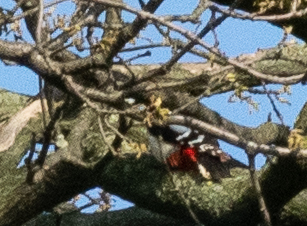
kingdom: Animalia
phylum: Chordata
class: Aves
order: Piciformes
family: Picidae
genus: Dendrocopos
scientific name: Dendrocopos major
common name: Great spotted woodpecker
